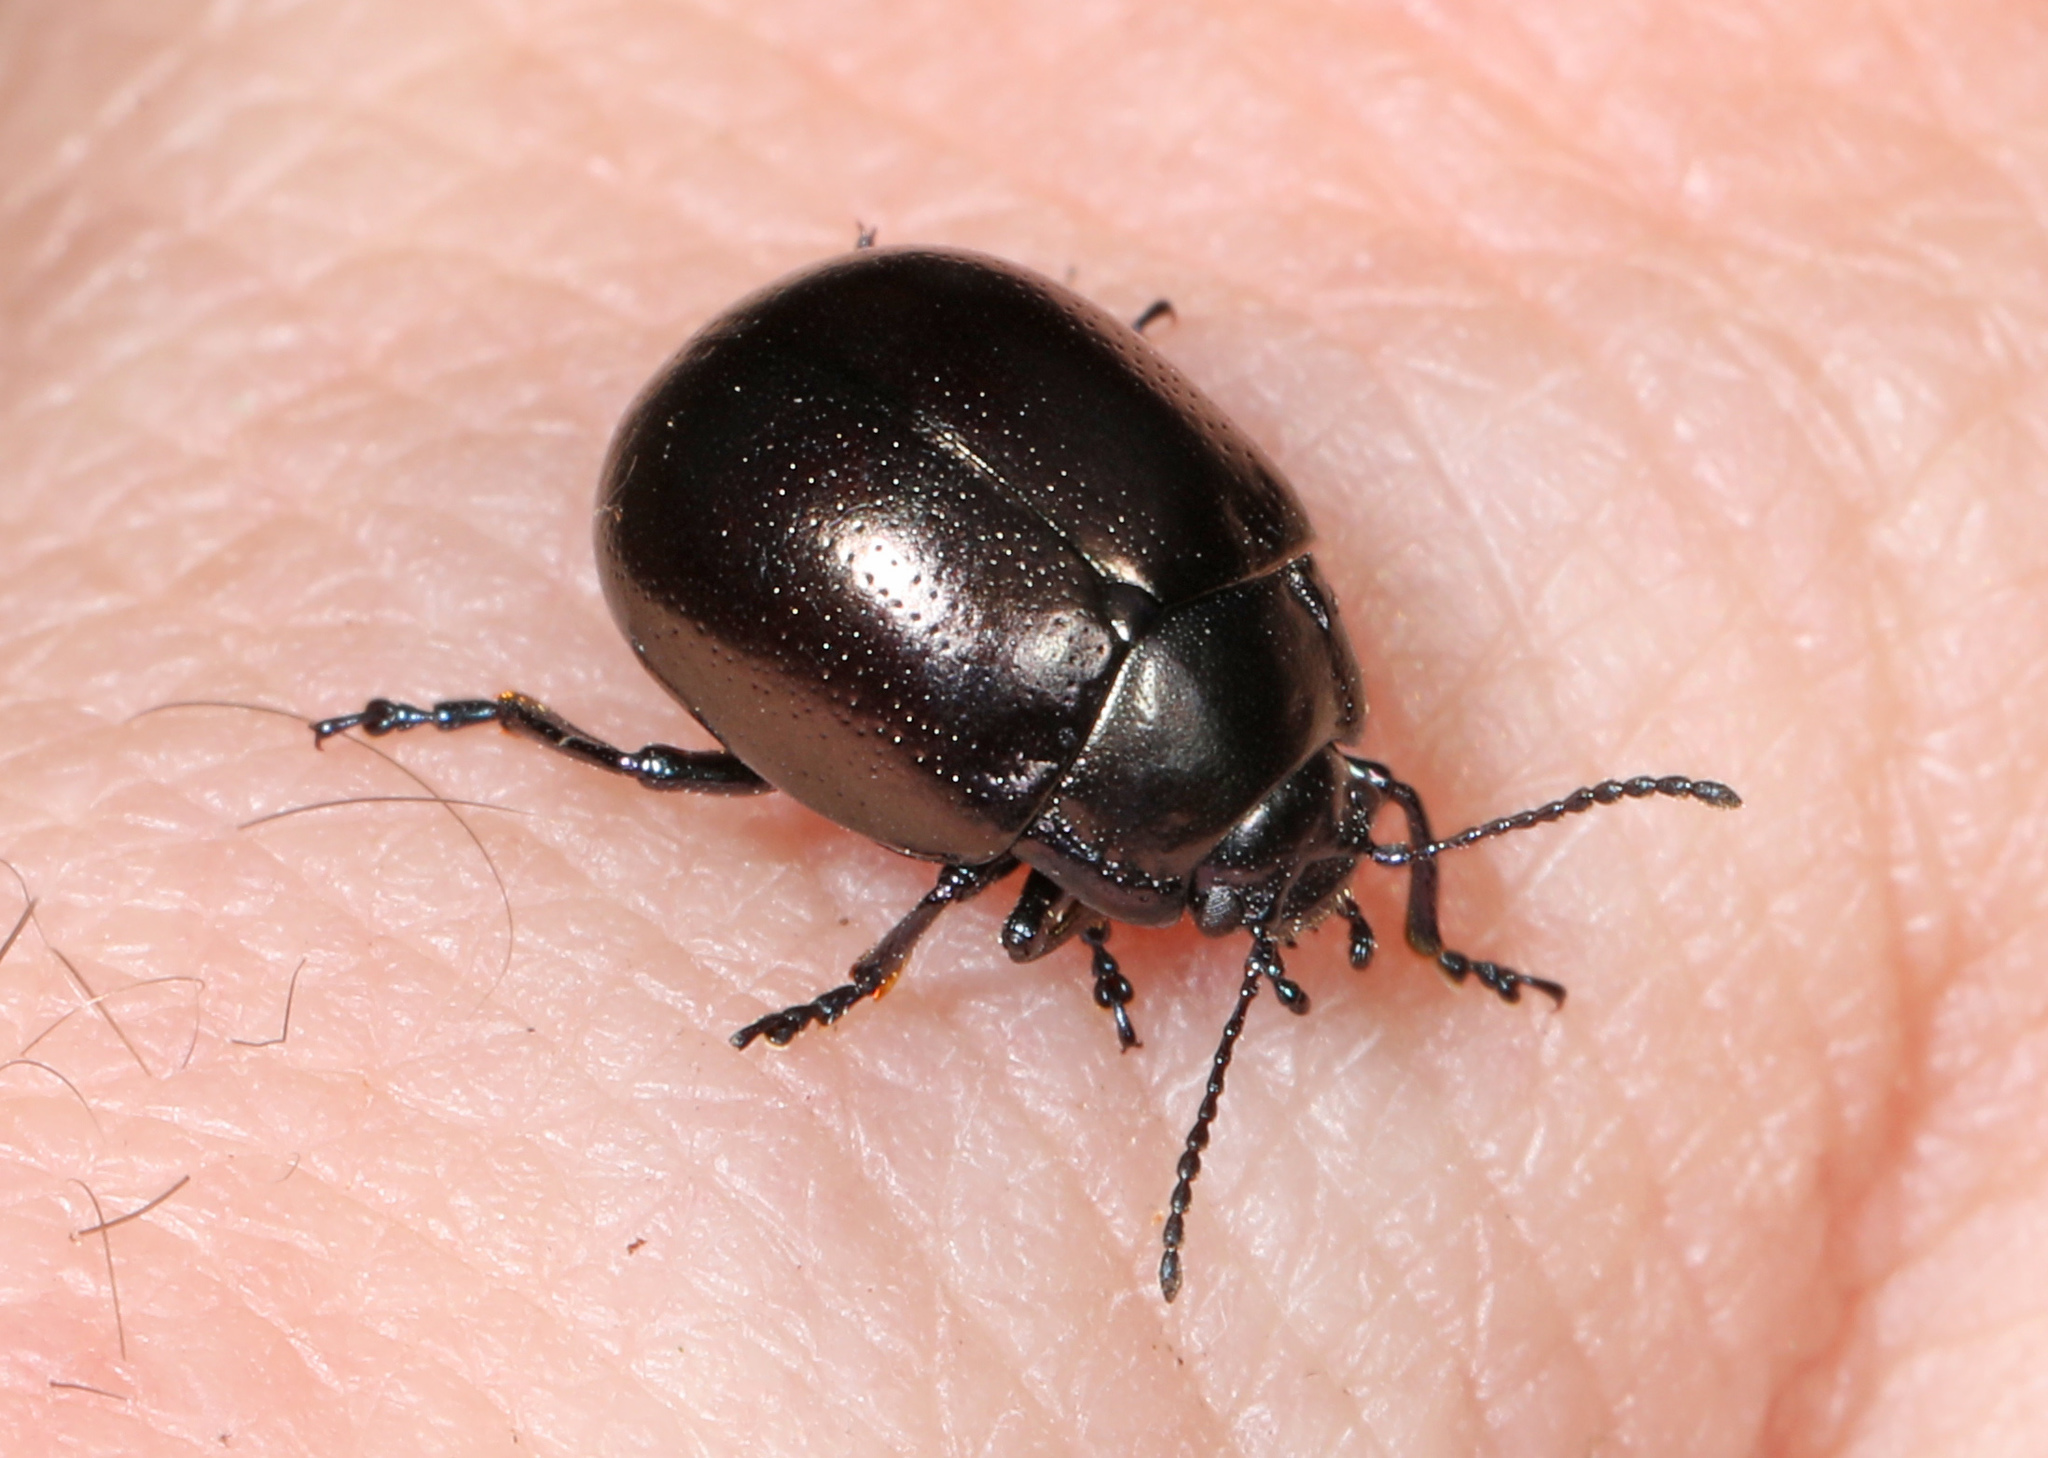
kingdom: Animalia
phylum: Arthropoda
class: Insecta
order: Coleoptera
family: Chrysomelidae
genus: Chrysolina
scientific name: Chrysolina inornata
